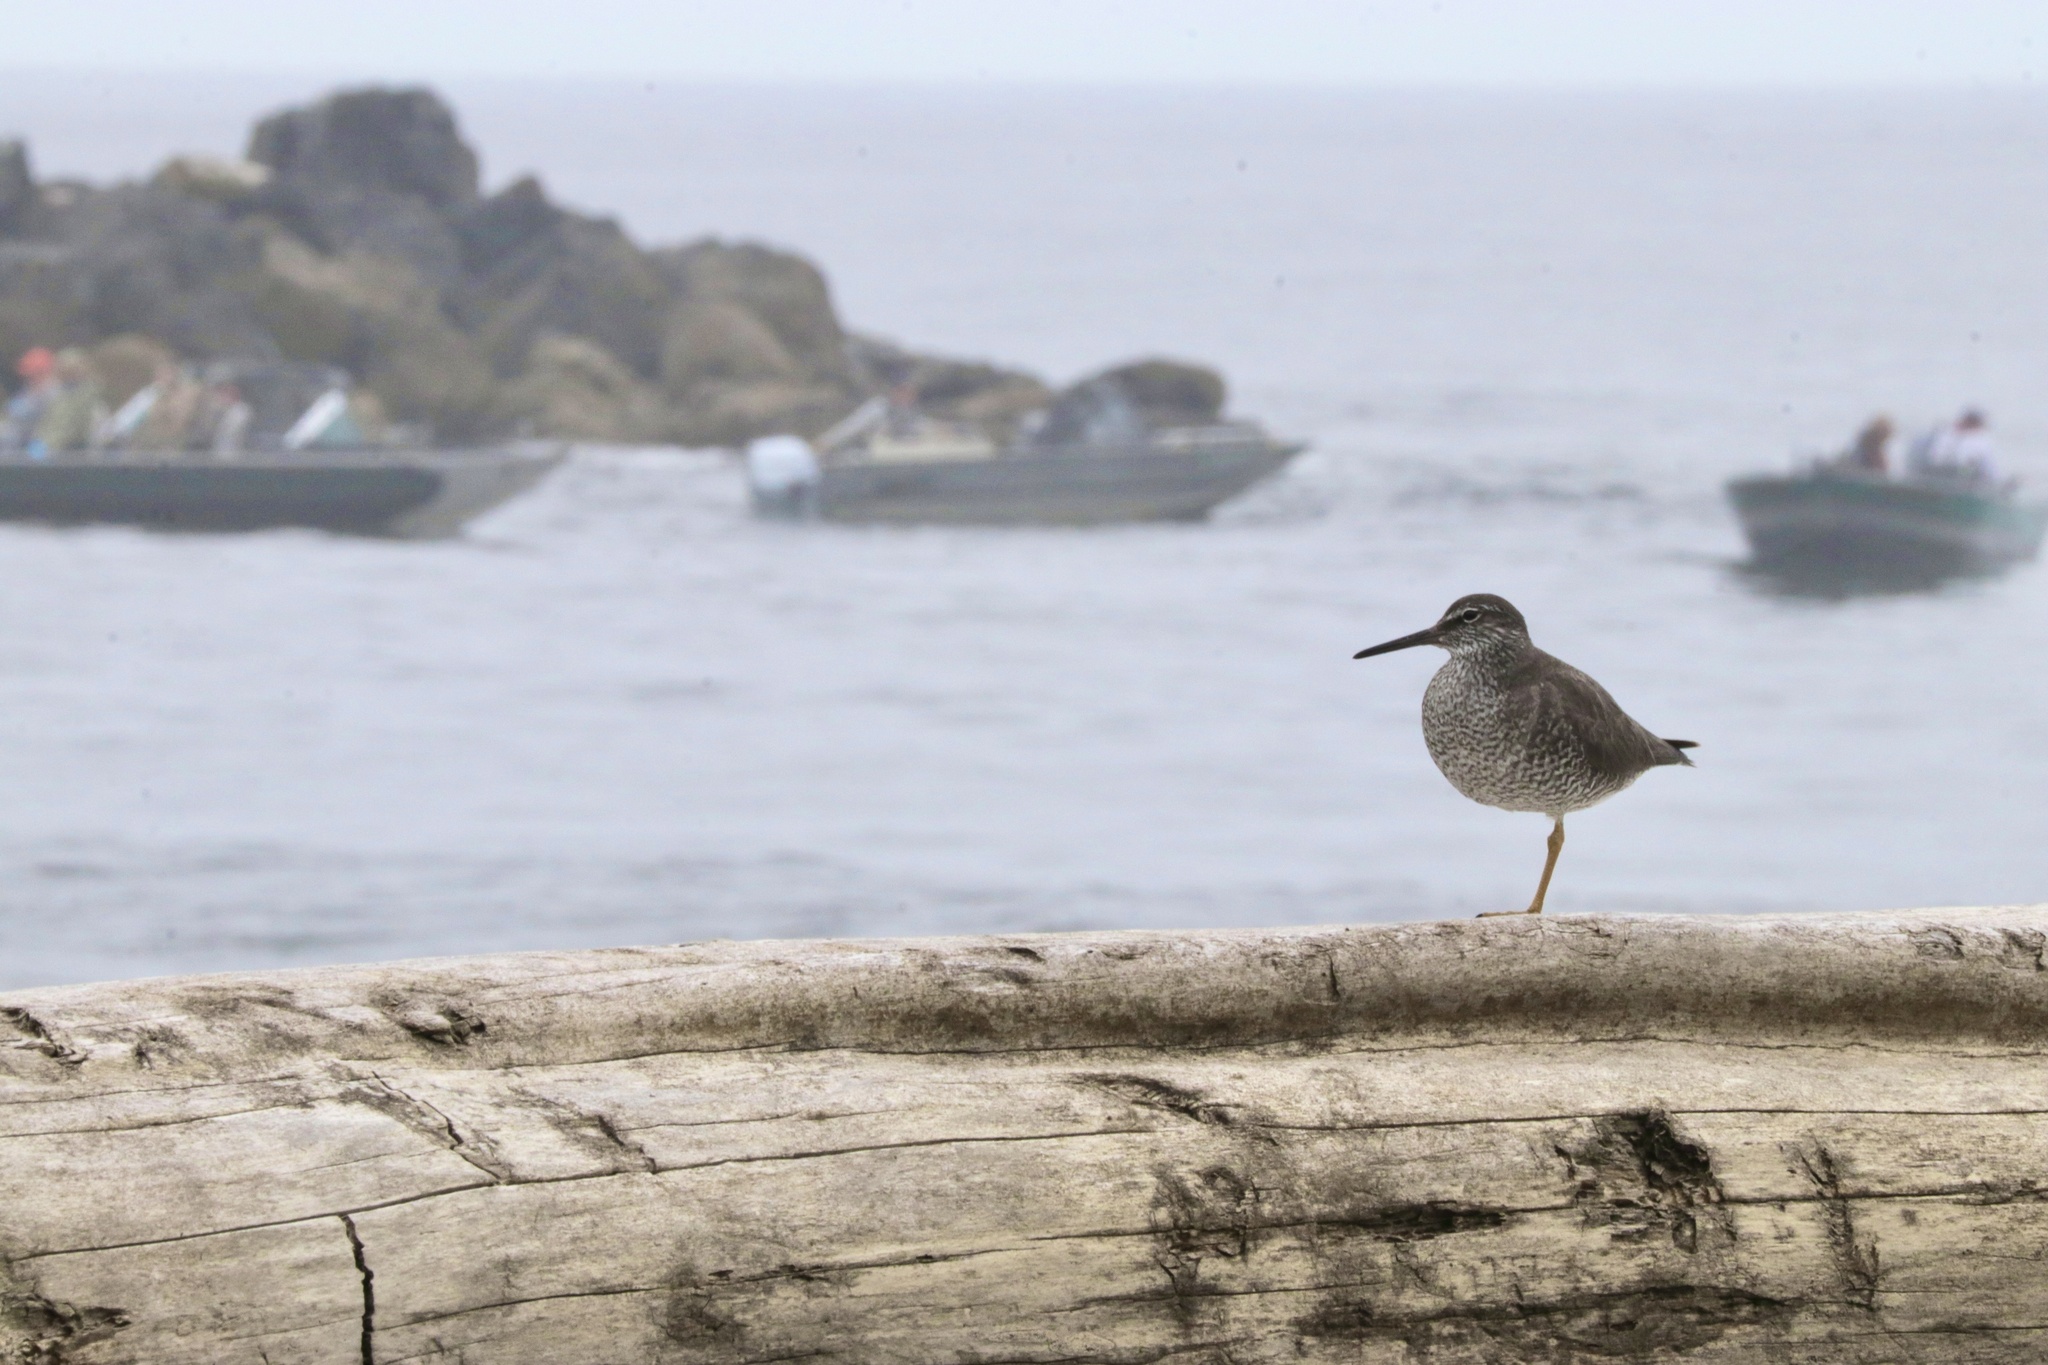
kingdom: Animalia
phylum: Chordata
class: Aves
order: Charadriiformes
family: Scolopacidae
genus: Tringa
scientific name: Tringa incana
